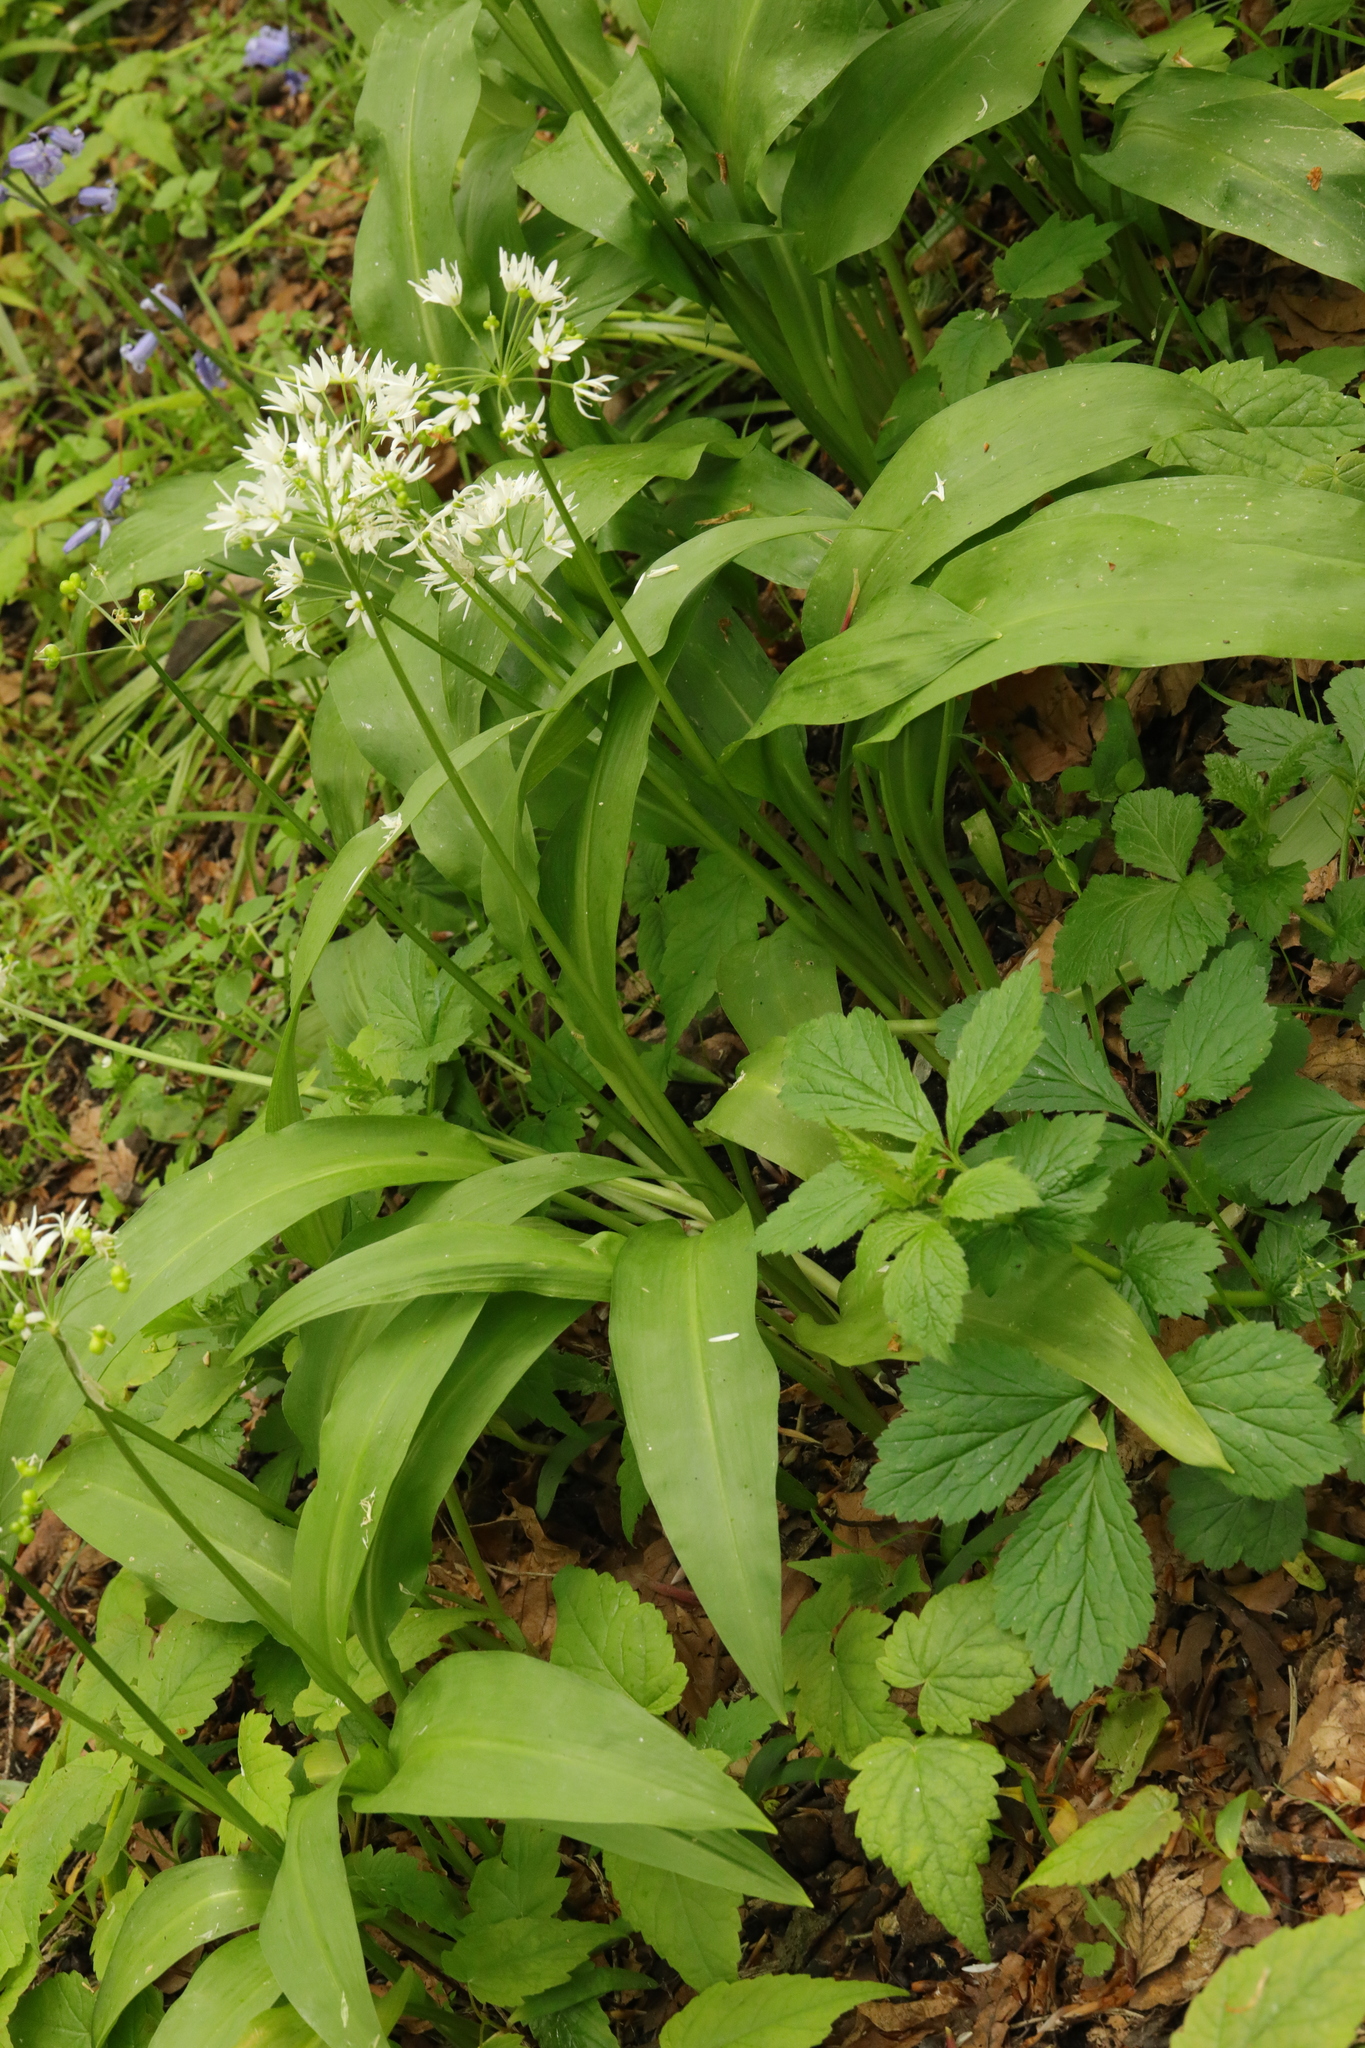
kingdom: Plantae
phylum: Tracheophyta
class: Liliopsida
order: Asparagales
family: Amaryllidaceae
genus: Allium
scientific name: Allium ursinum
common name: Ramsons
